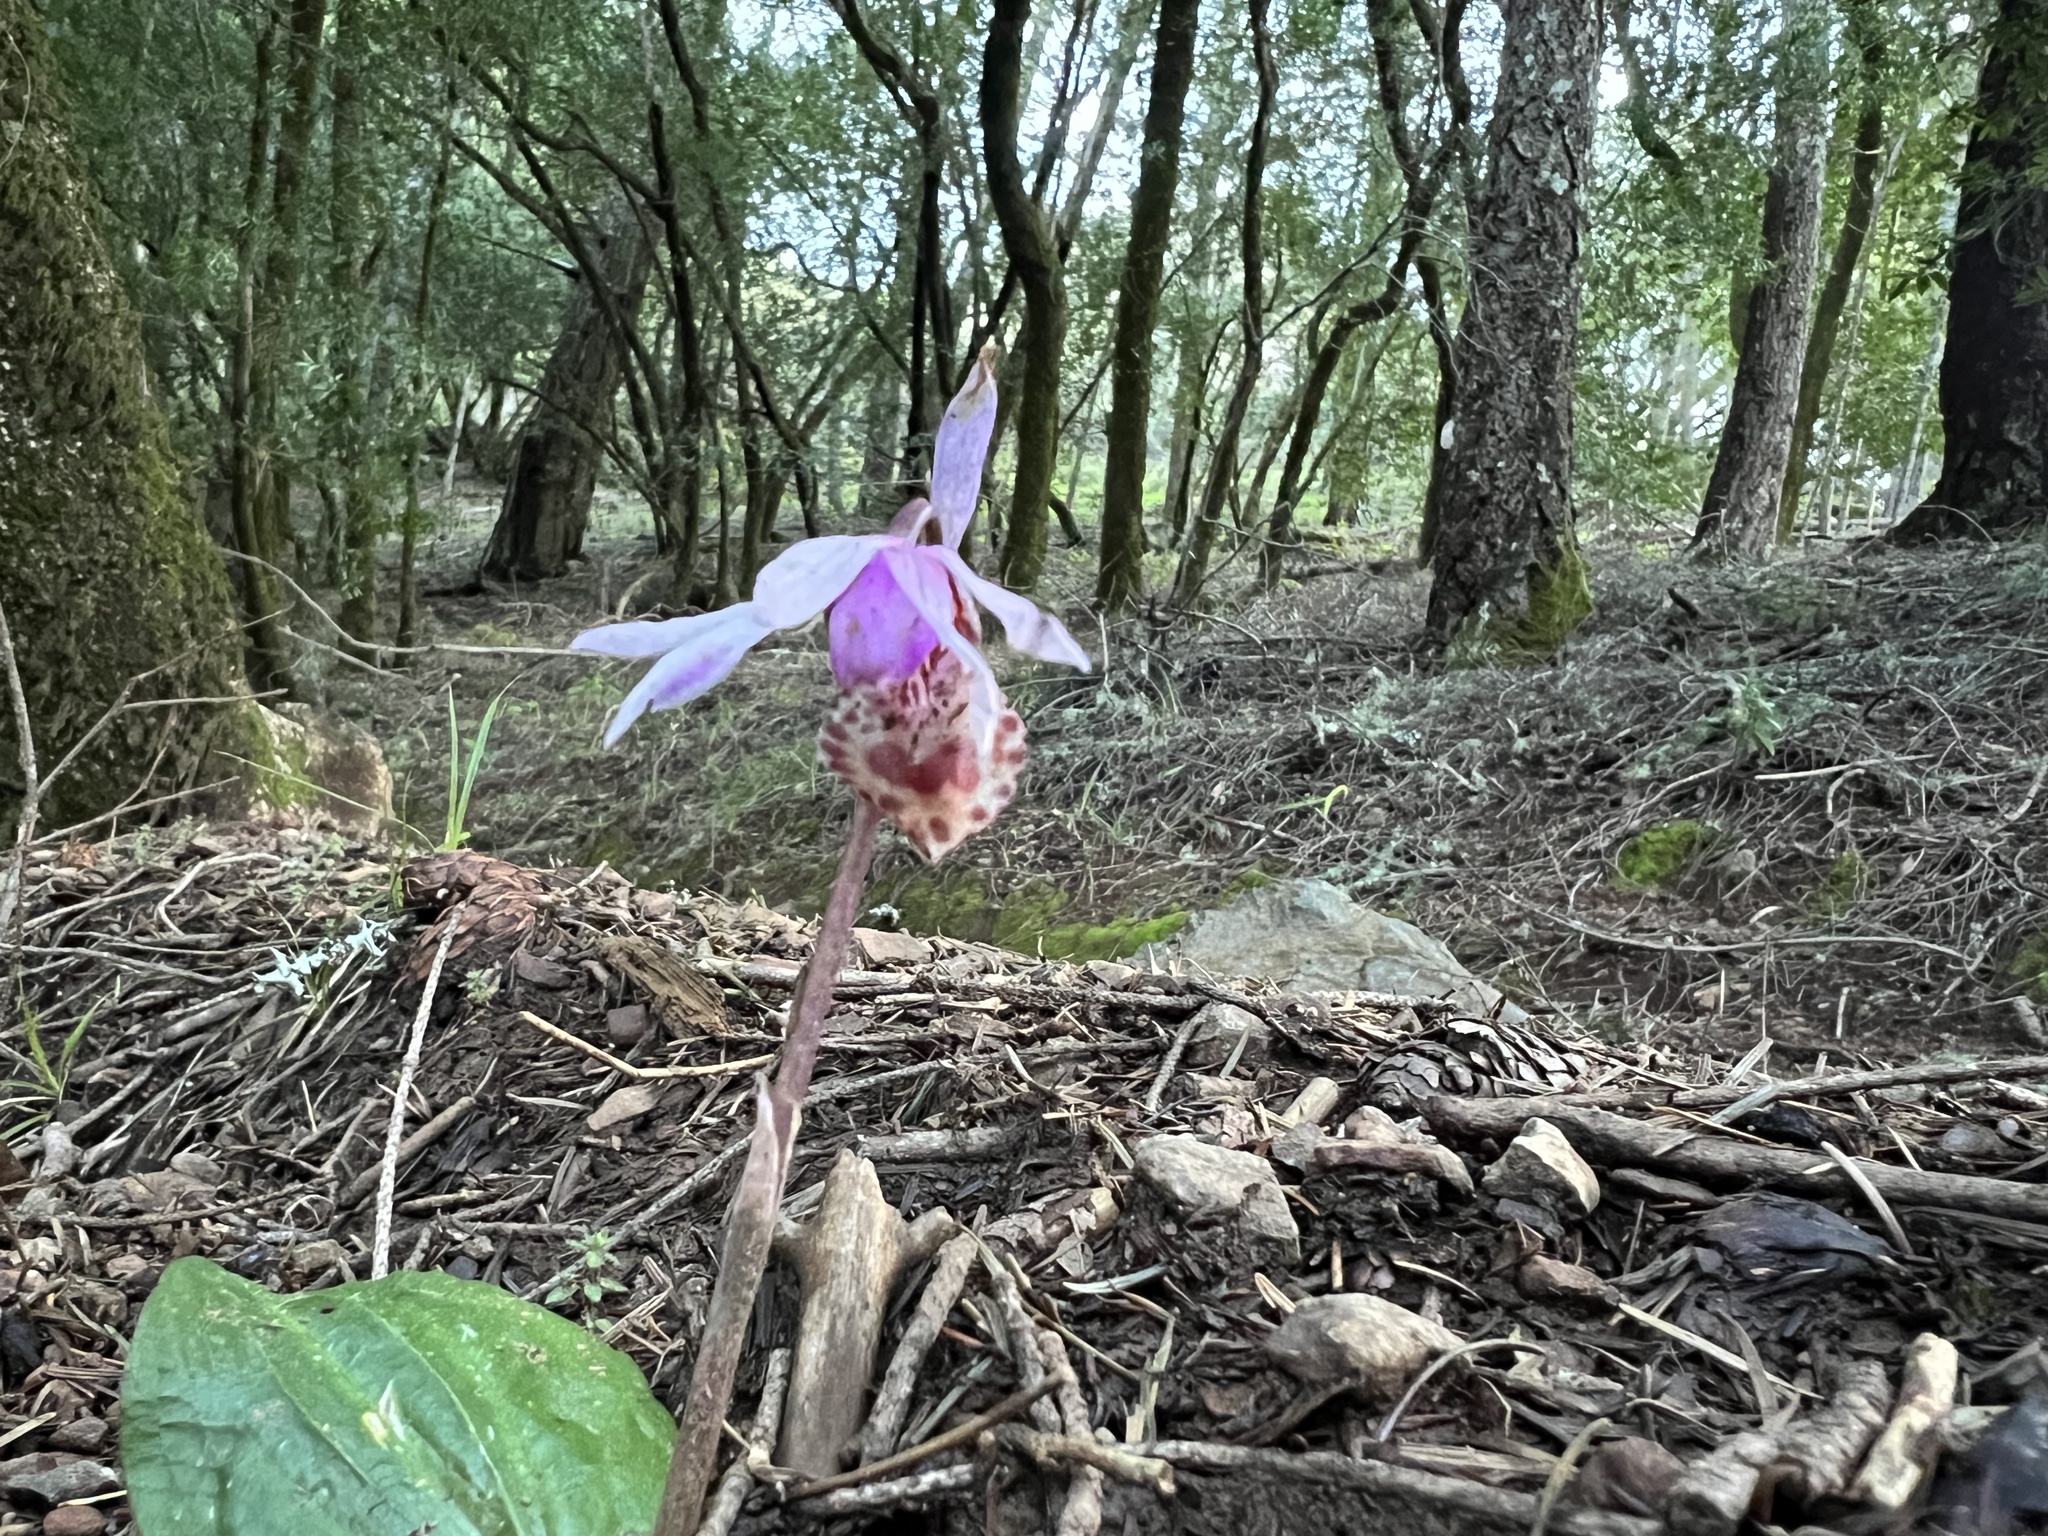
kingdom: Plantae
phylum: Tracheophyta
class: Liliopsida
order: Asparagales
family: Orchidaceae
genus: Calypso
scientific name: Calypso bulbosa
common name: Calypso
